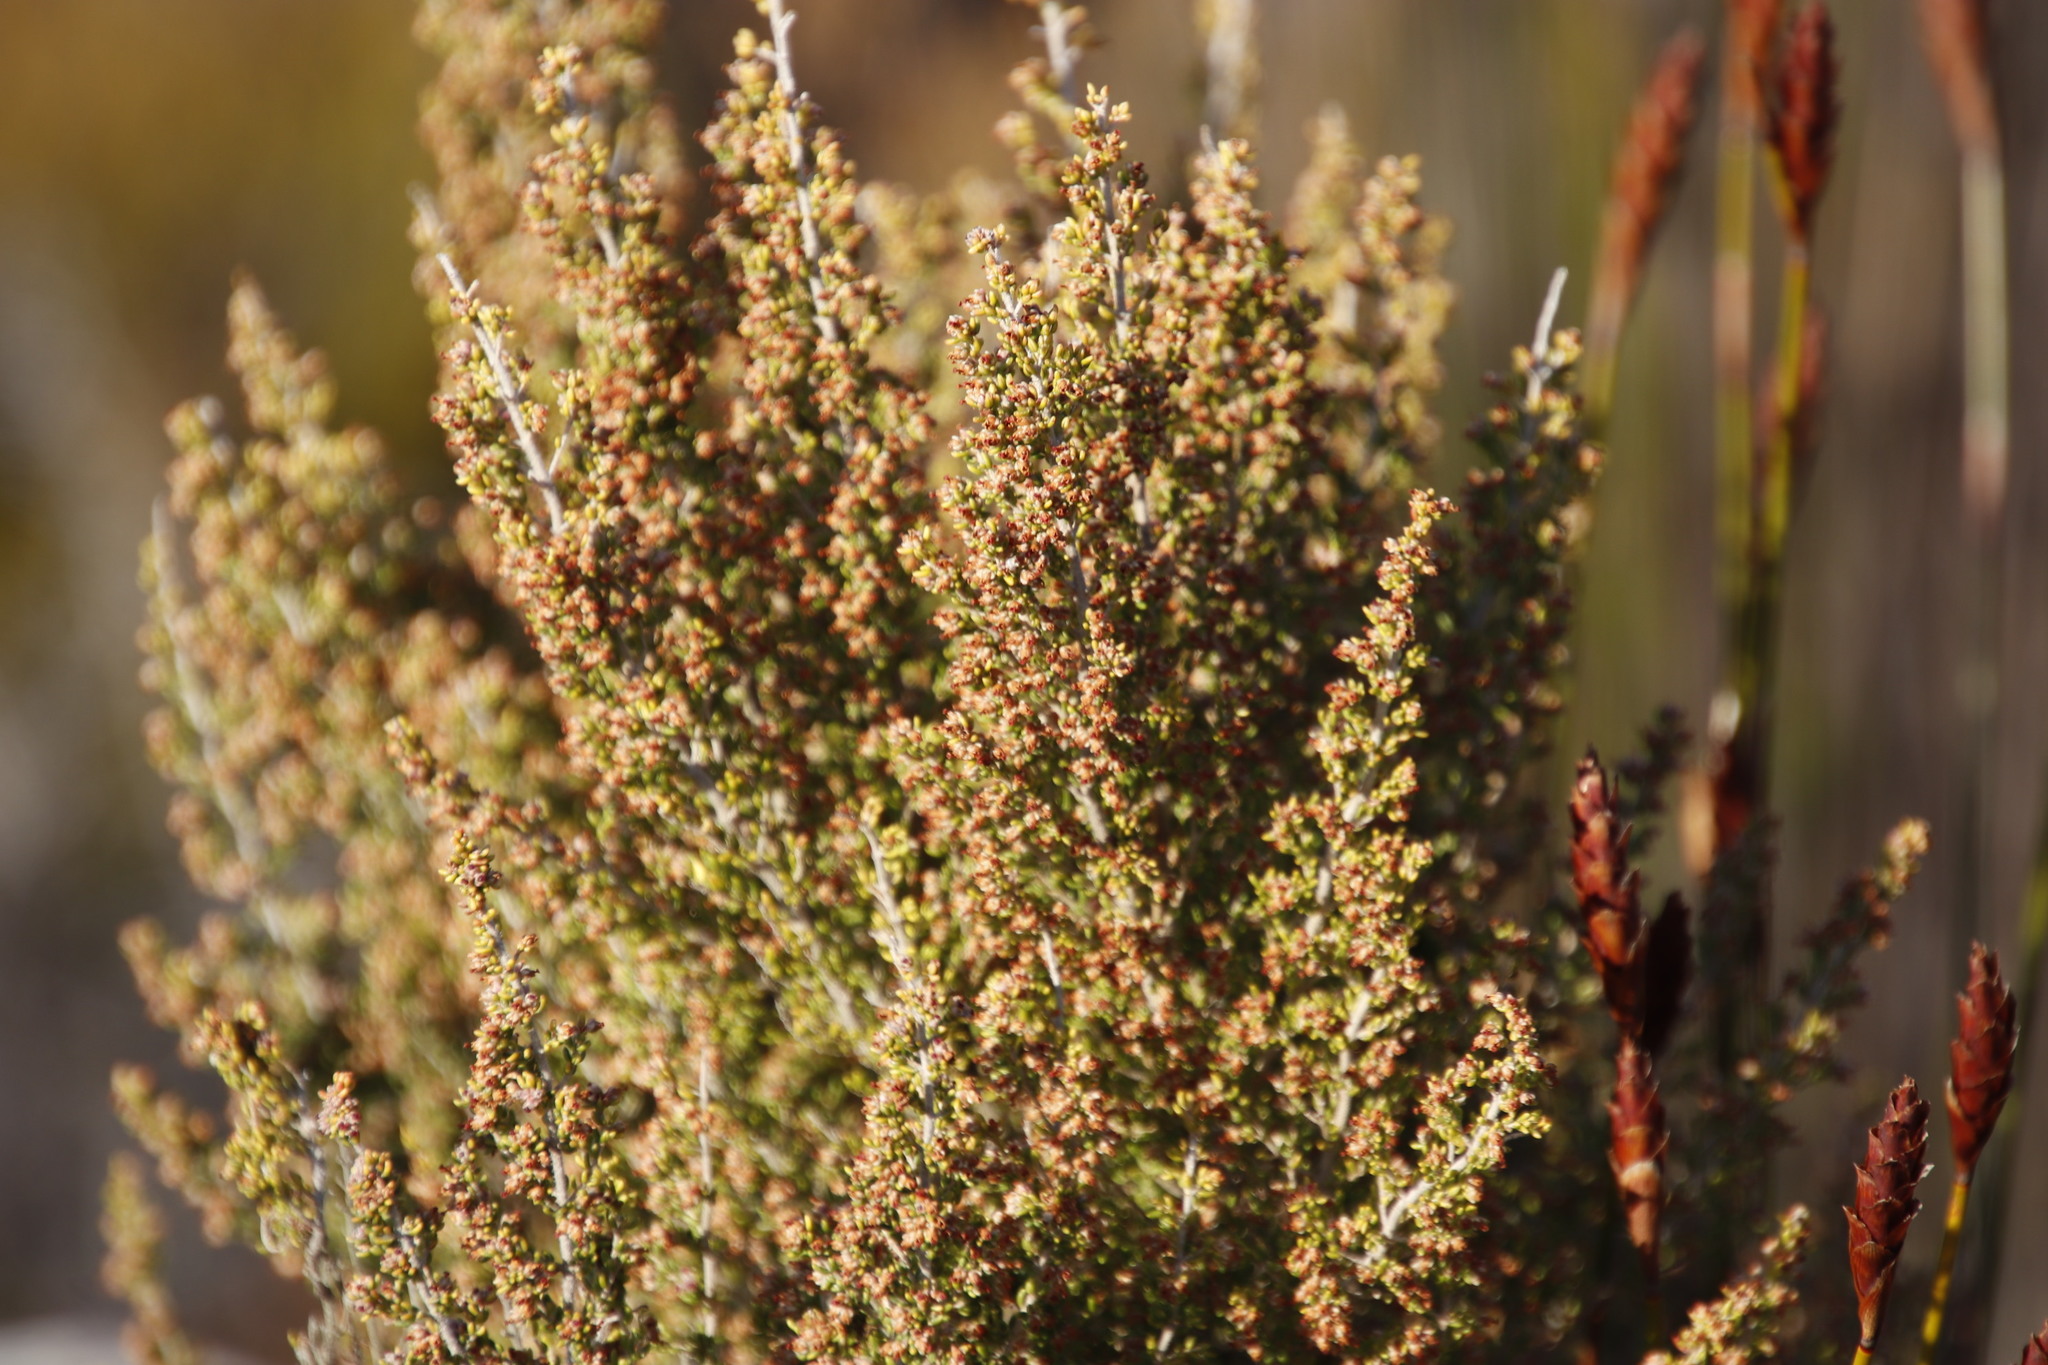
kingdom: Plantae
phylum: Tracheophyta
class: Magnoliopsida
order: Ericales
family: Ericaceae
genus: Erica
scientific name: Erica hispidula
